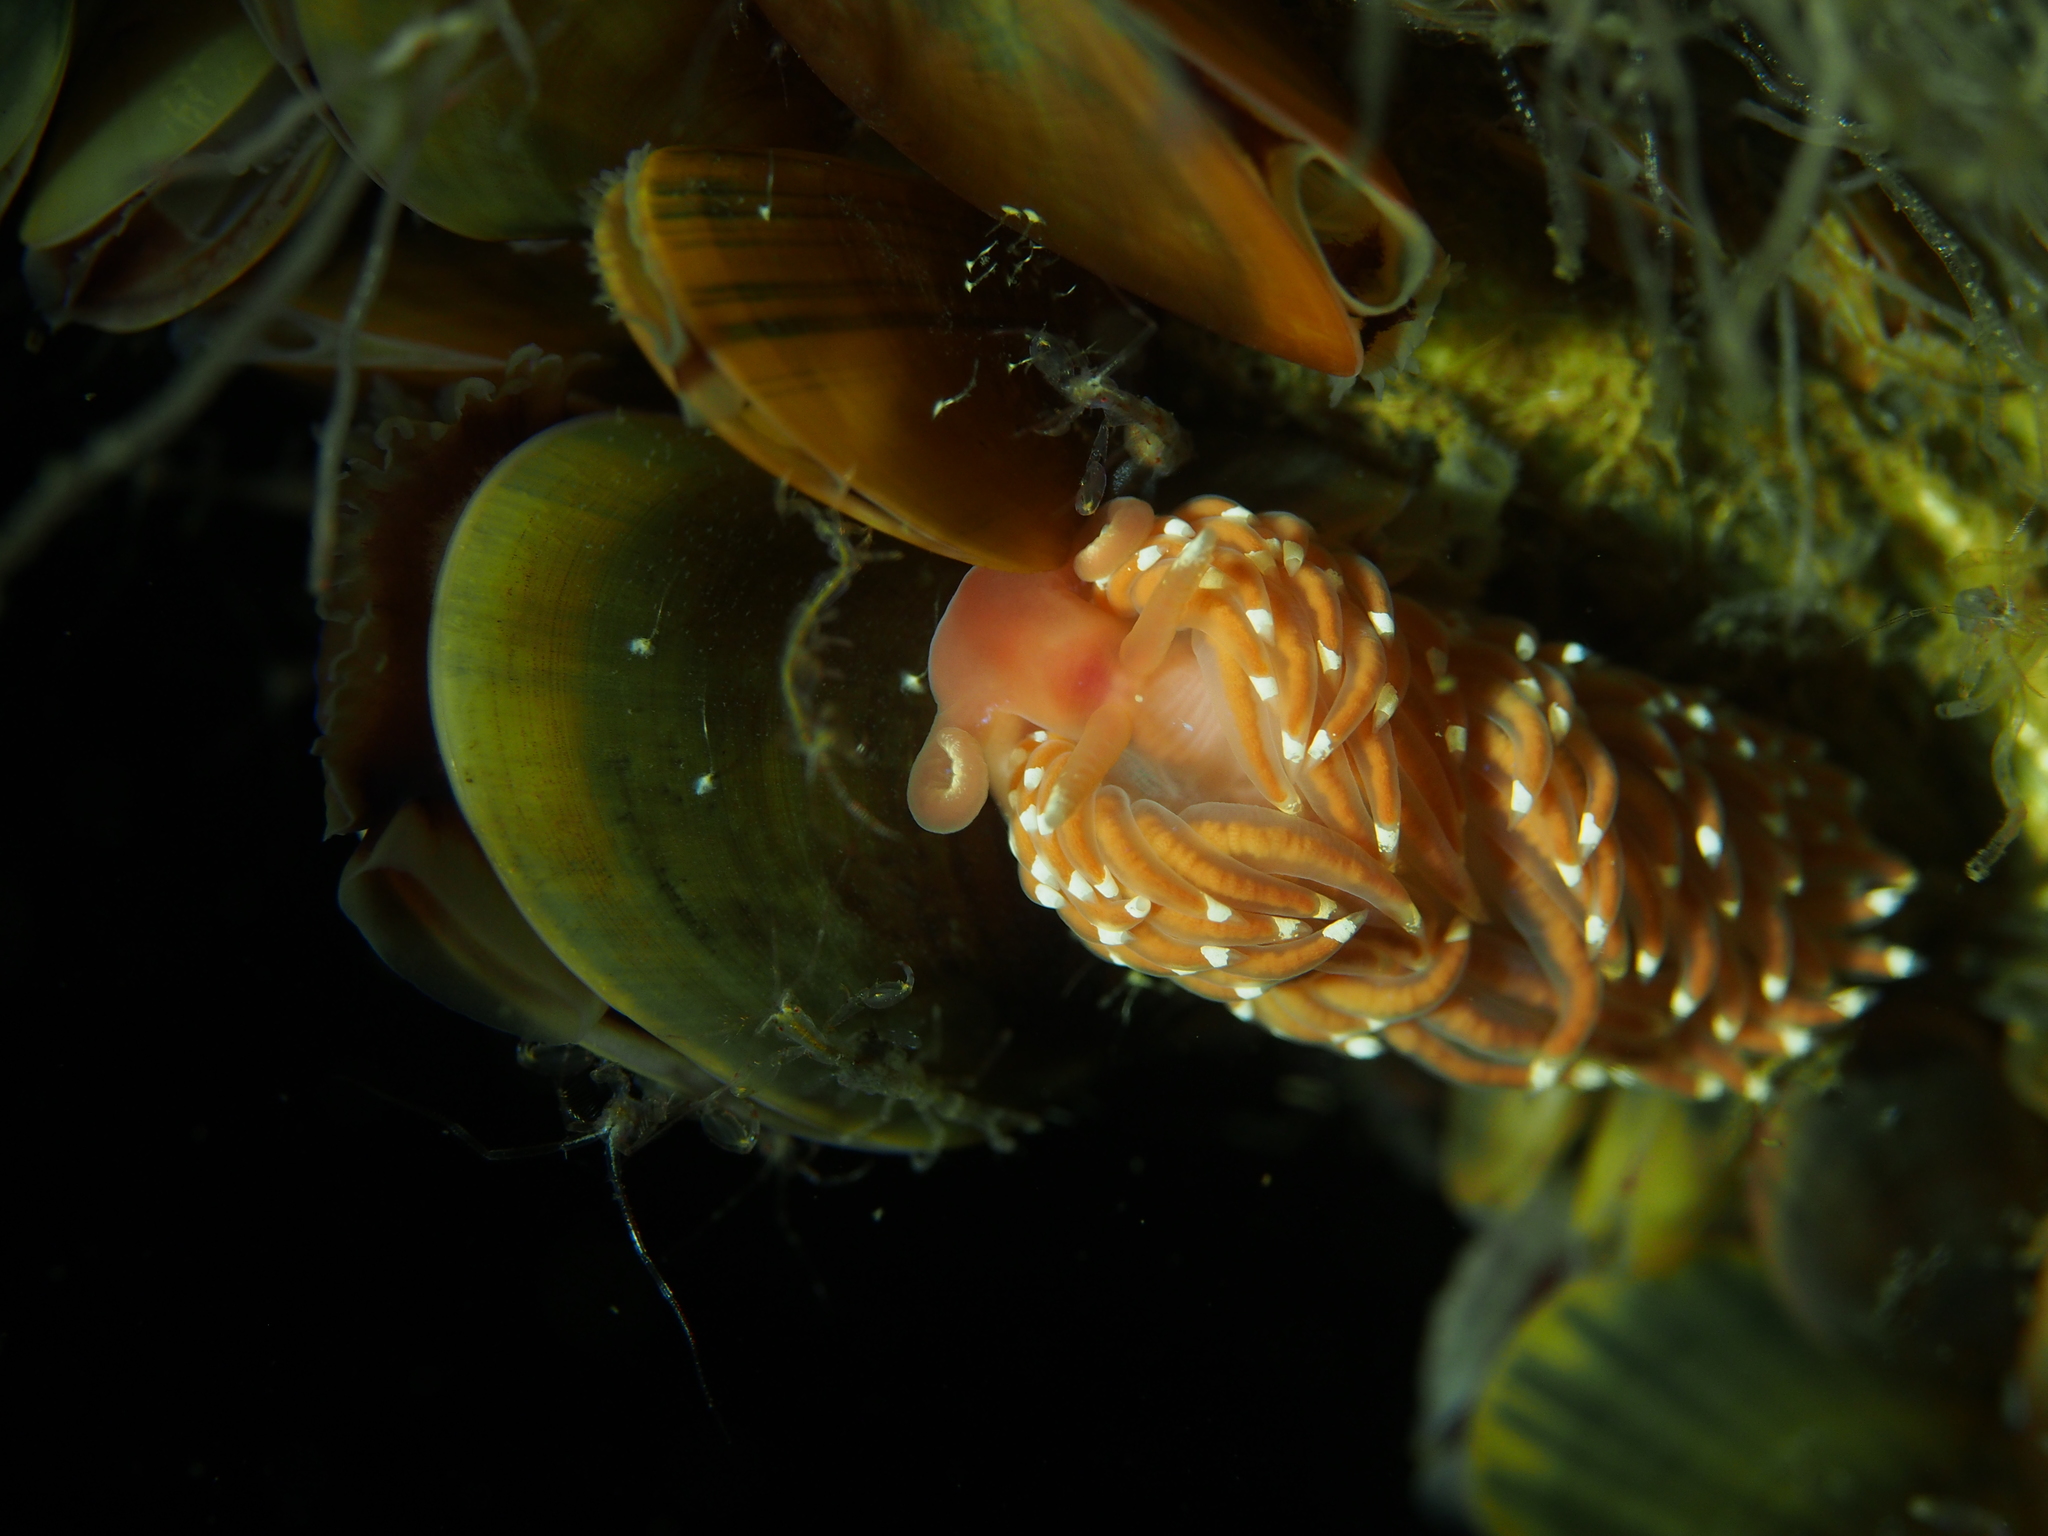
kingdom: Animalia
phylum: Mollusca
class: Gastropoda
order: Nudibranchia
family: Facelinidae
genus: Facelina
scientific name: Facelina bostoniensis
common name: Boston facelina
